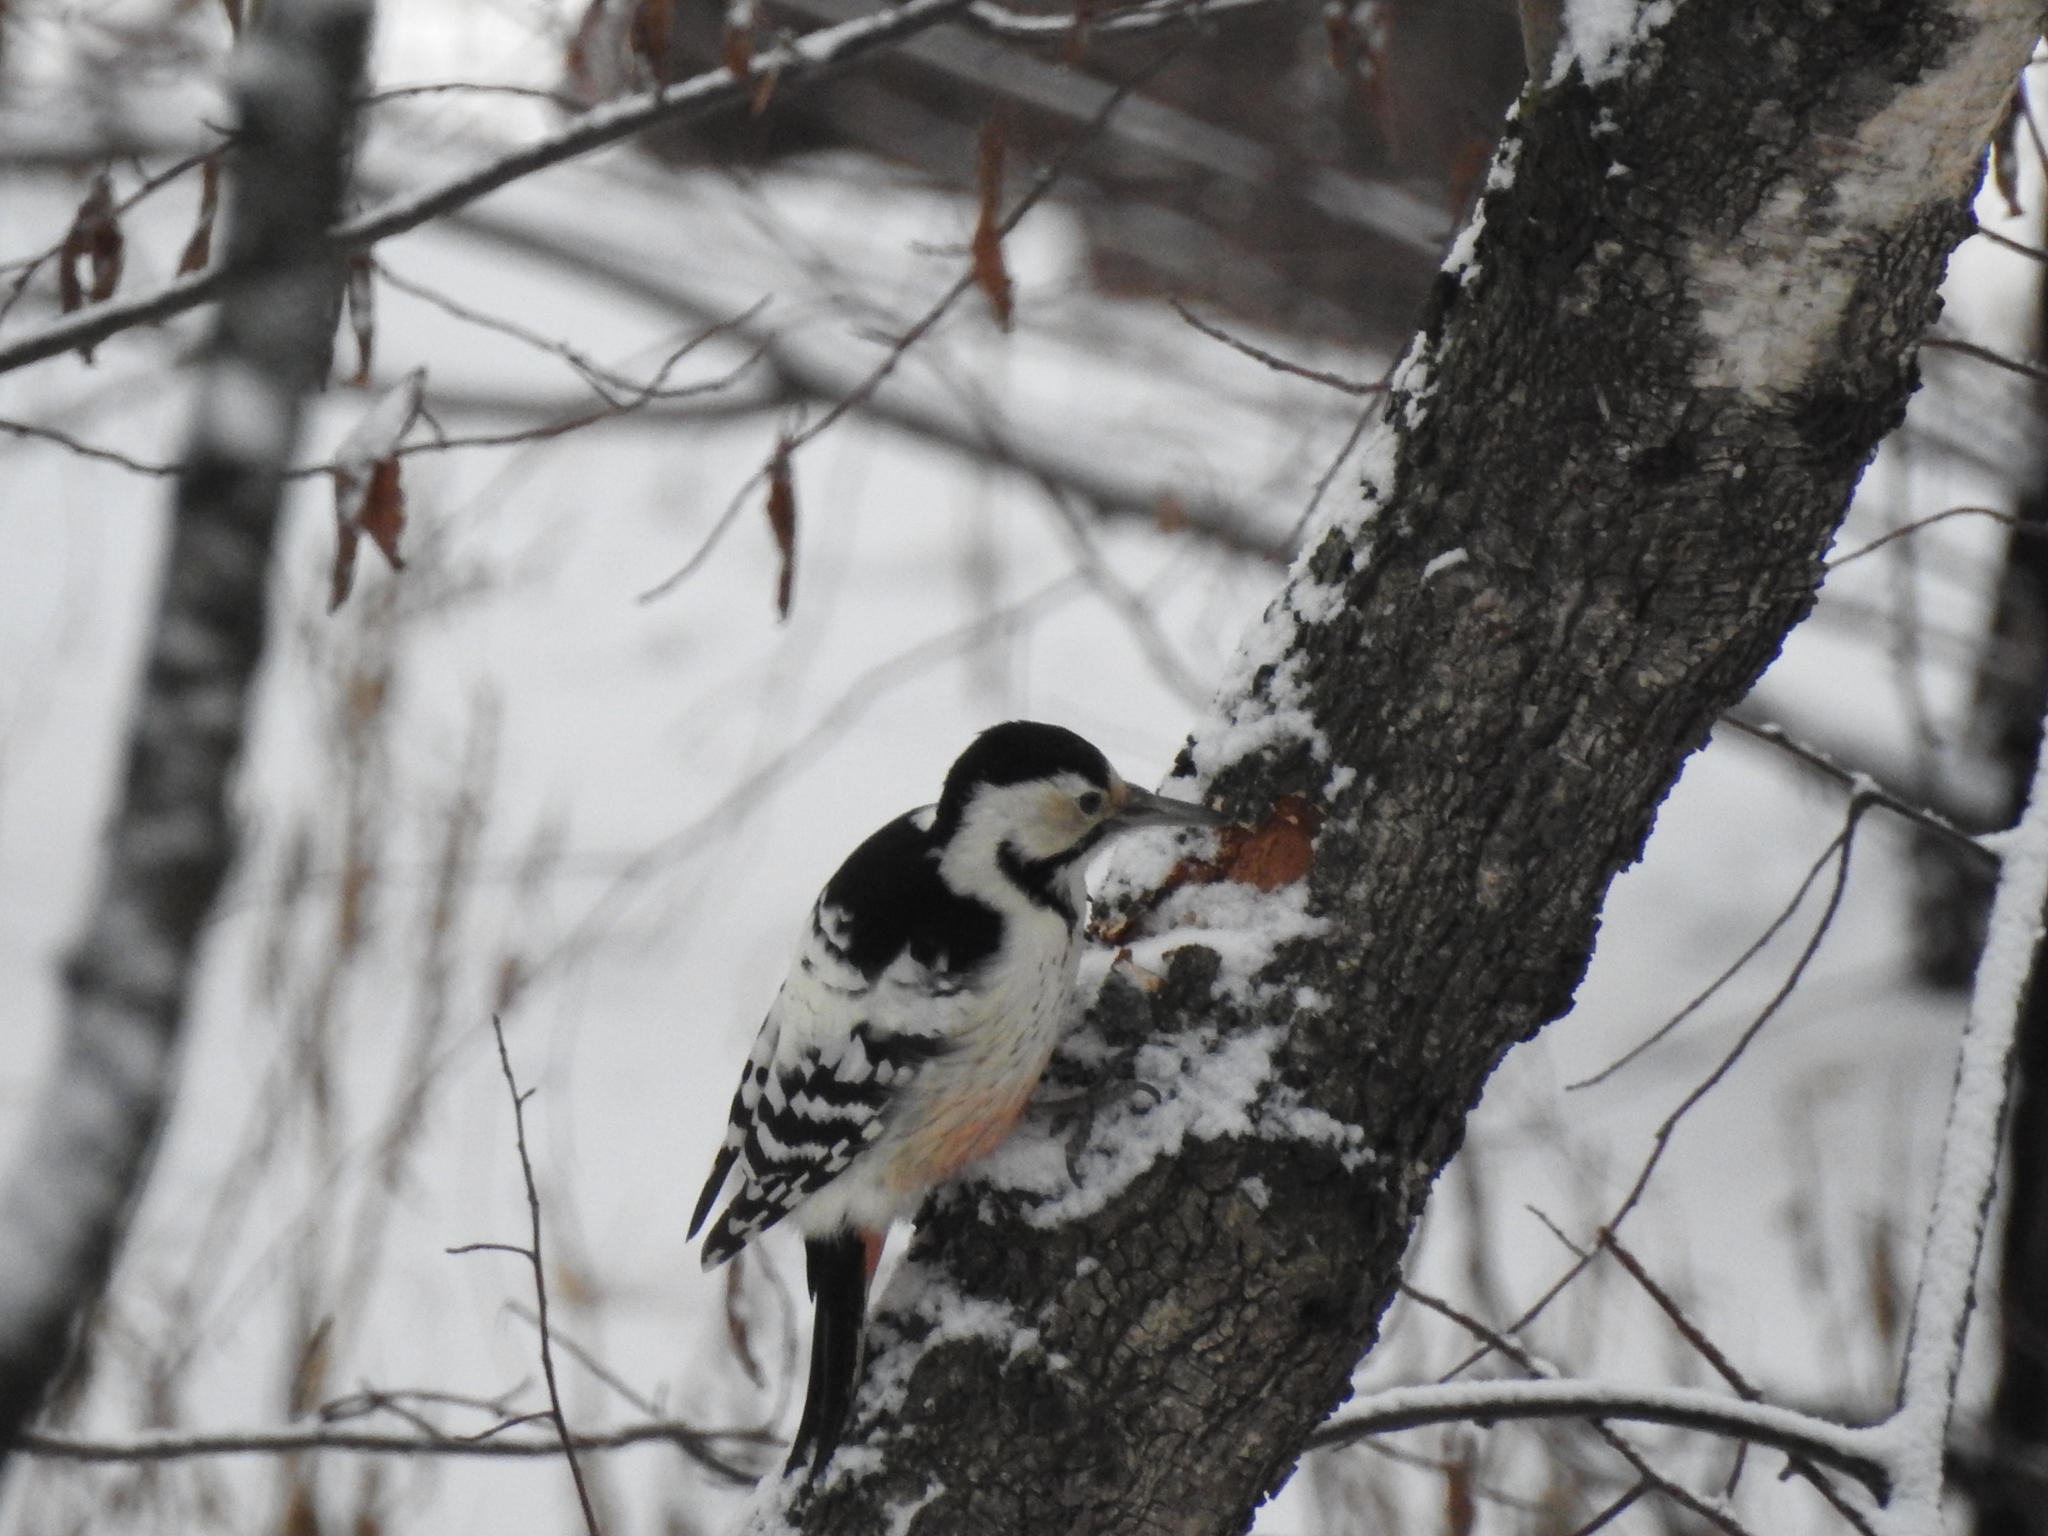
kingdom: Animalia
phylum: Chordata
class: Aves
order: Piciformes
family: Picidae
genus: Dendrocopos
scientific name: Dendrocopos leucotos
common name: White-backed woodpecker
